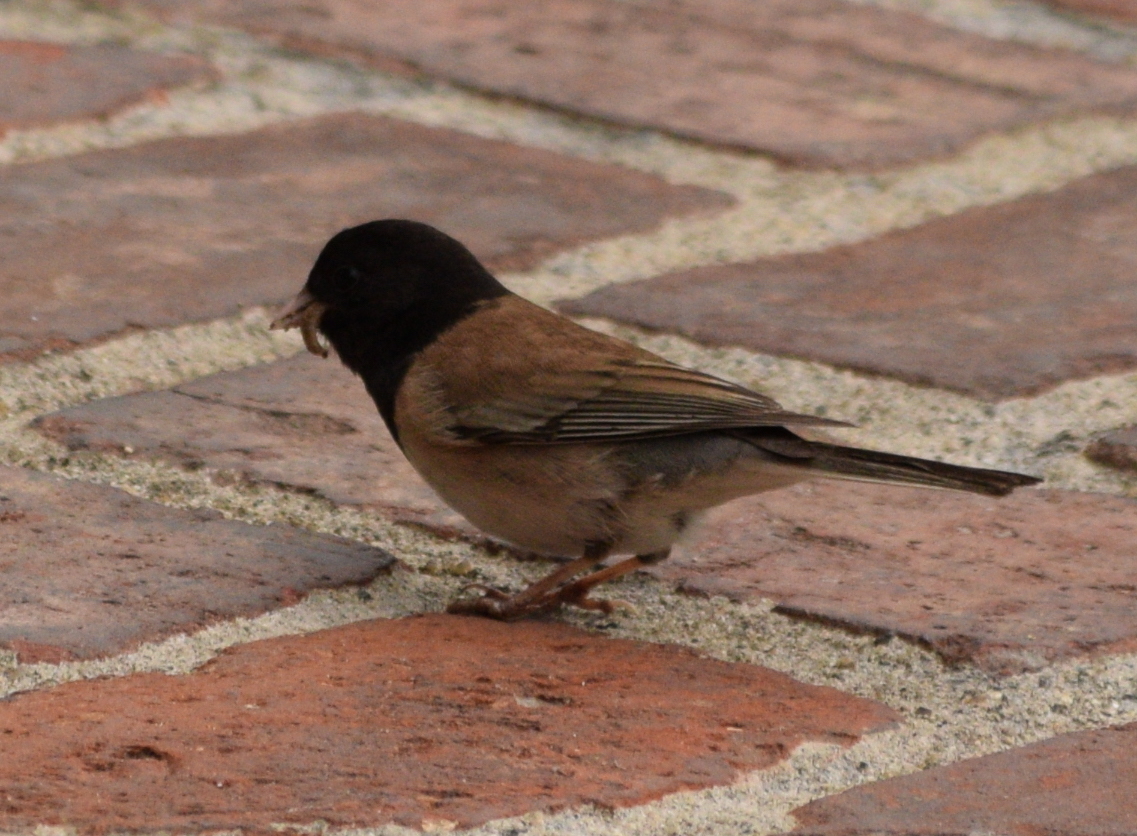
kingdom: Animalia
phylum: Chordata
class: Aves
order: Passeriformes
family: Passerellidae
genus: Junco
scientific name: Junco hyemalis
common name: Dark-eyed junco
